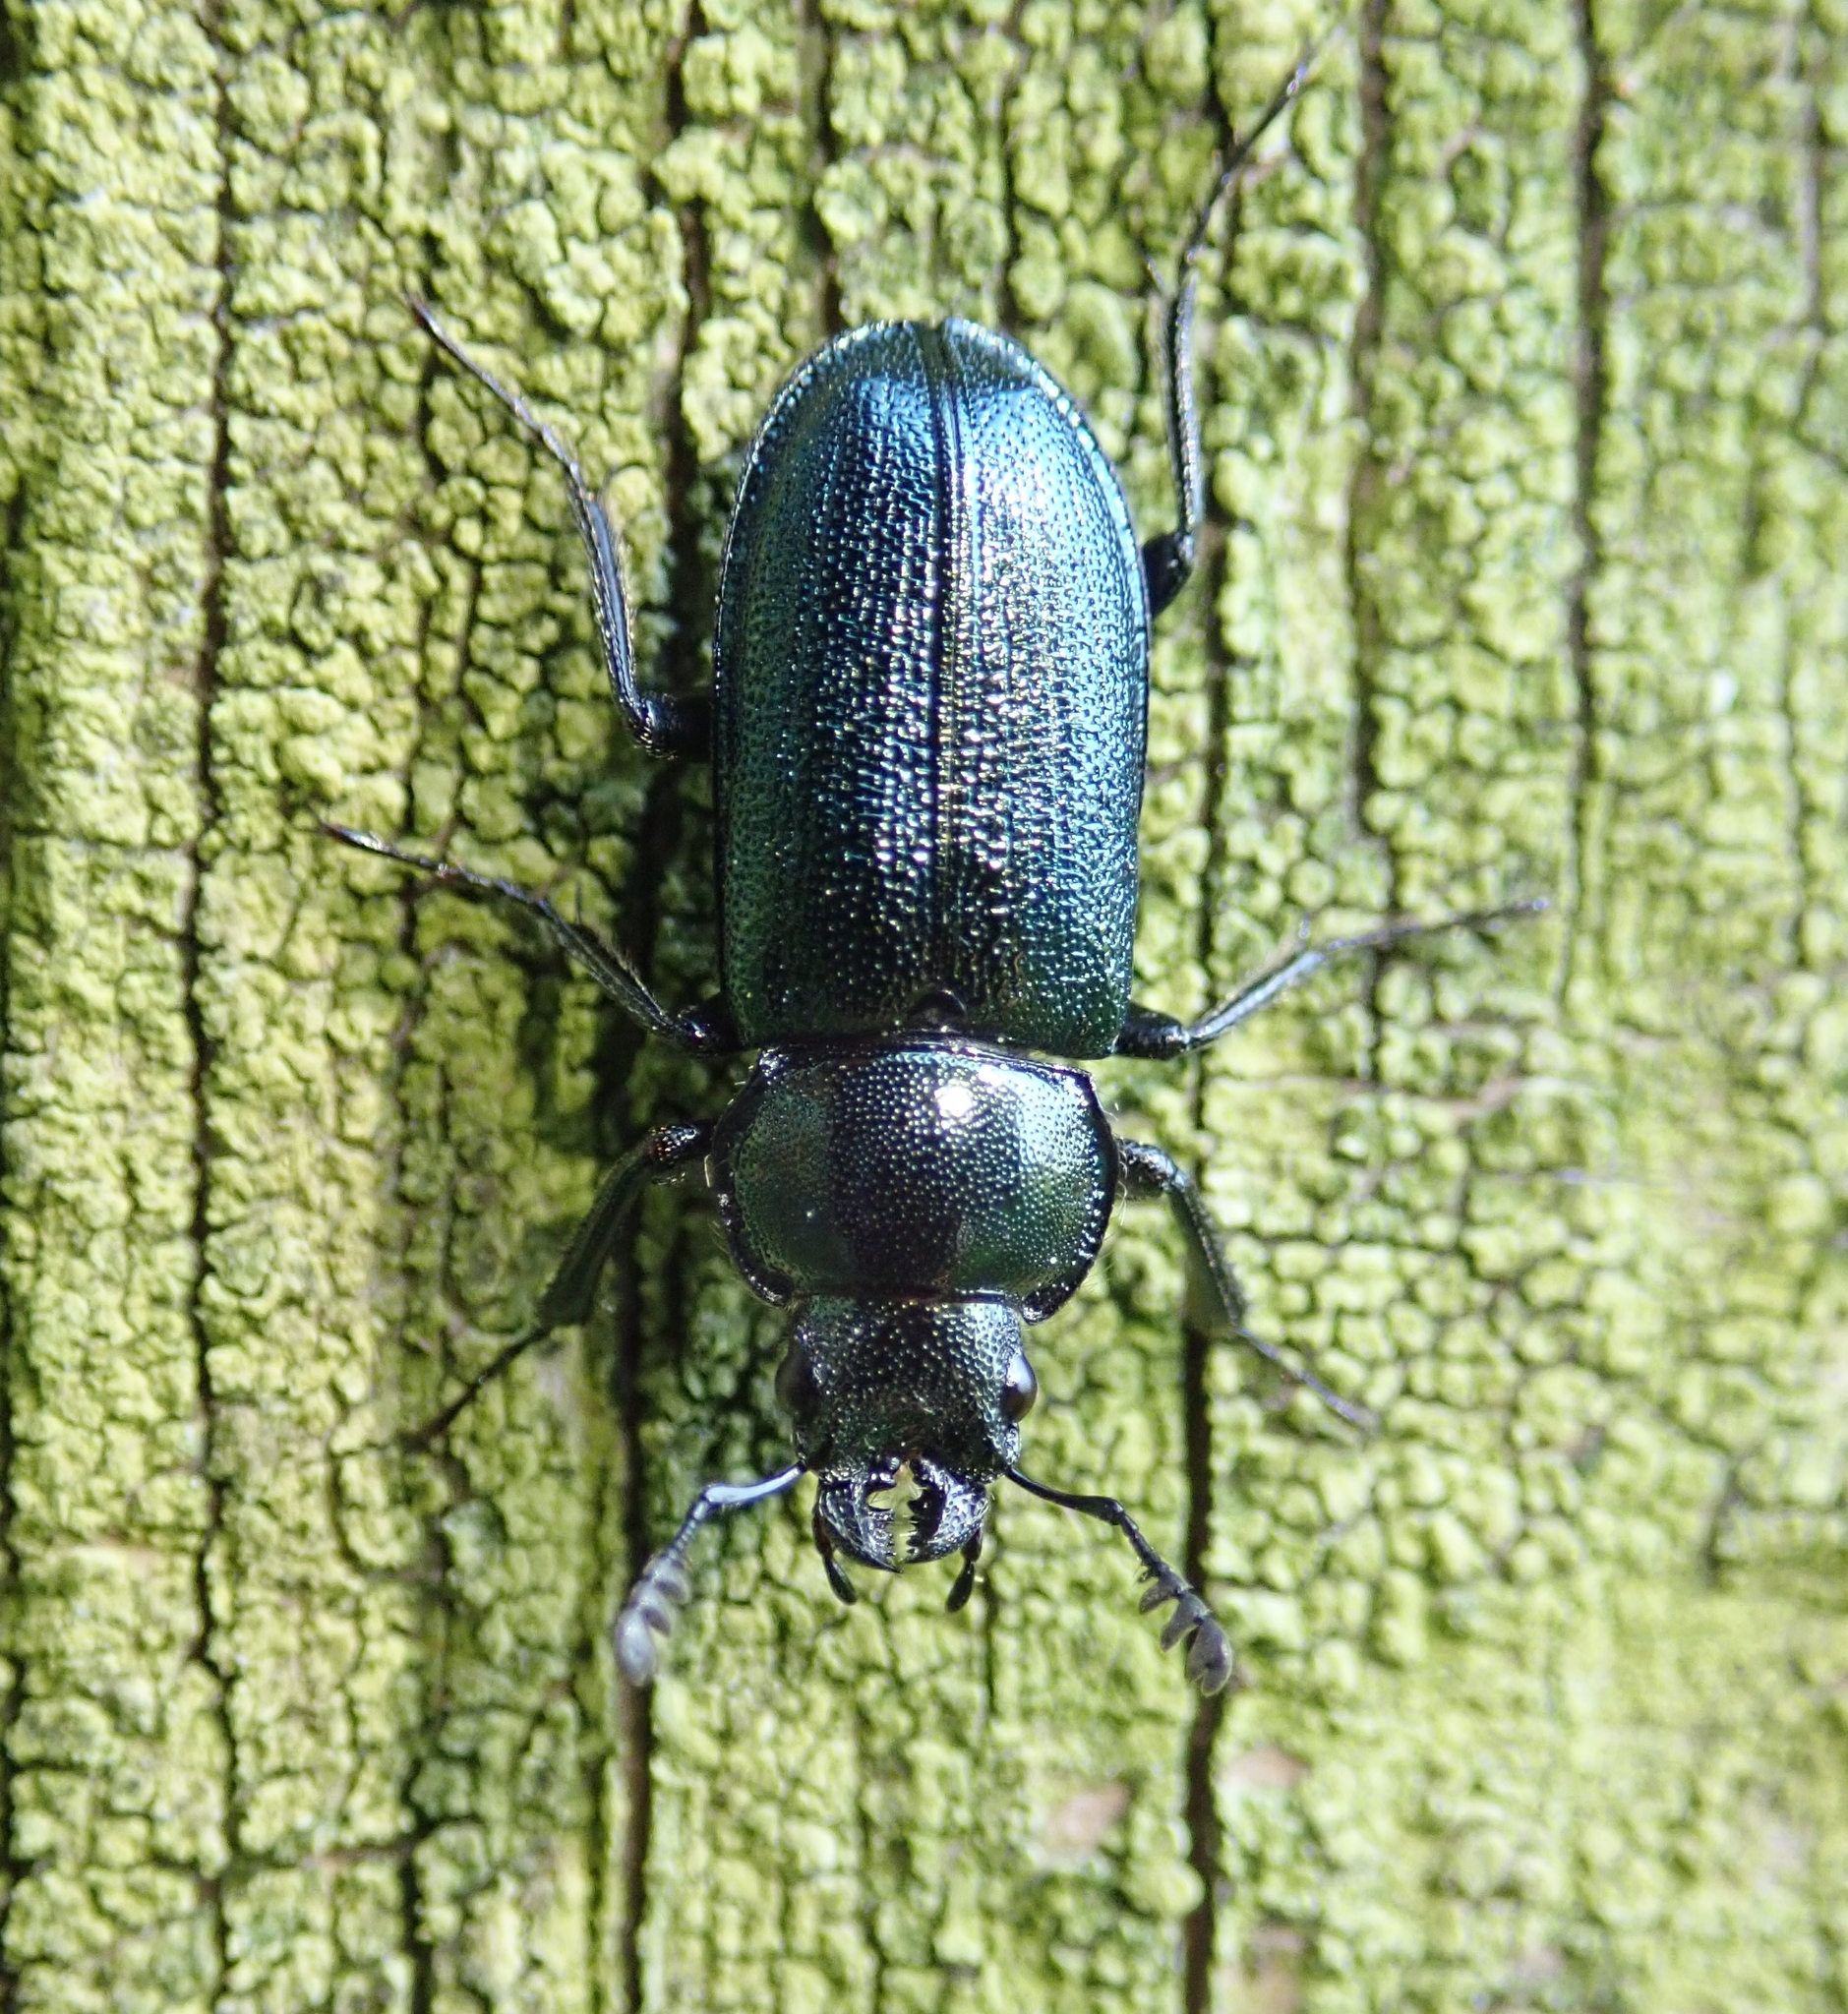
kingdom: Animalia
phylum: Arthropoda
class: Insecta
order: Coleoptera
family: Lucanidae
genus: Platycerus
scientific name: Platycerus caraboides
